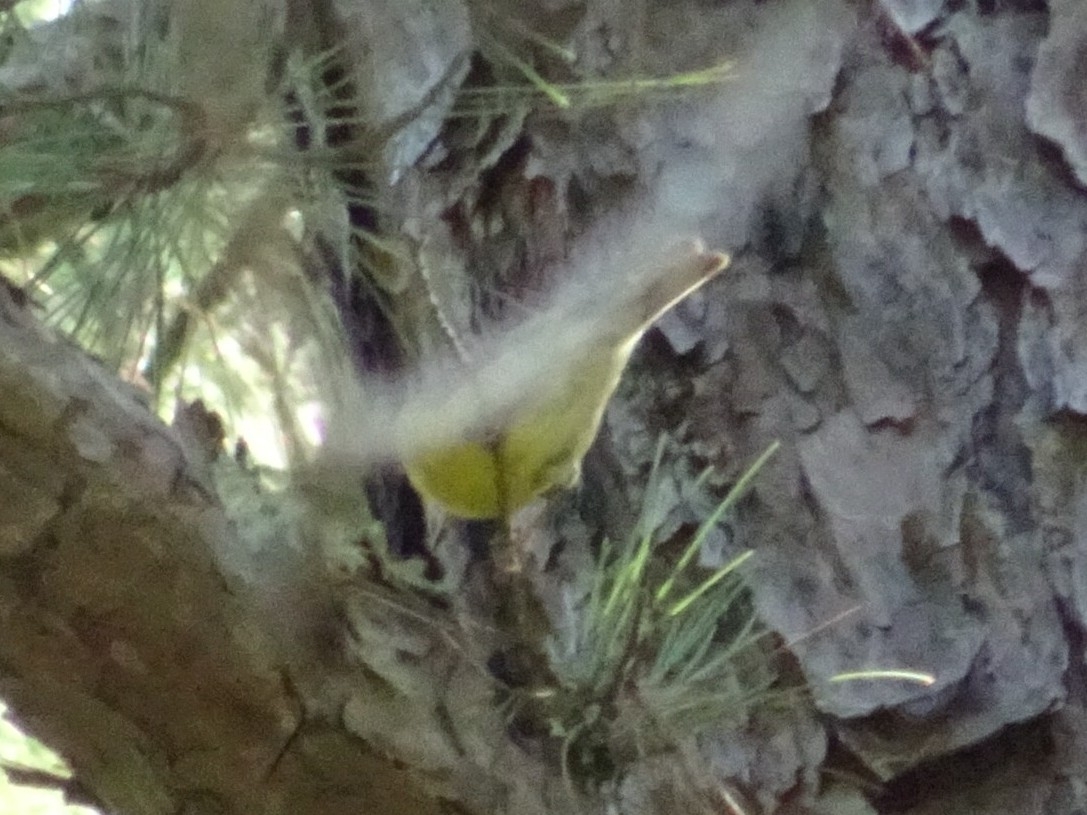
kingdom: Animalia
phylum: Chordata
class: Aves
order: Passeriformes
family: Parulidae
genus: Setophaga
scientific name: Setophaga pinus
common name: Pine warbler
